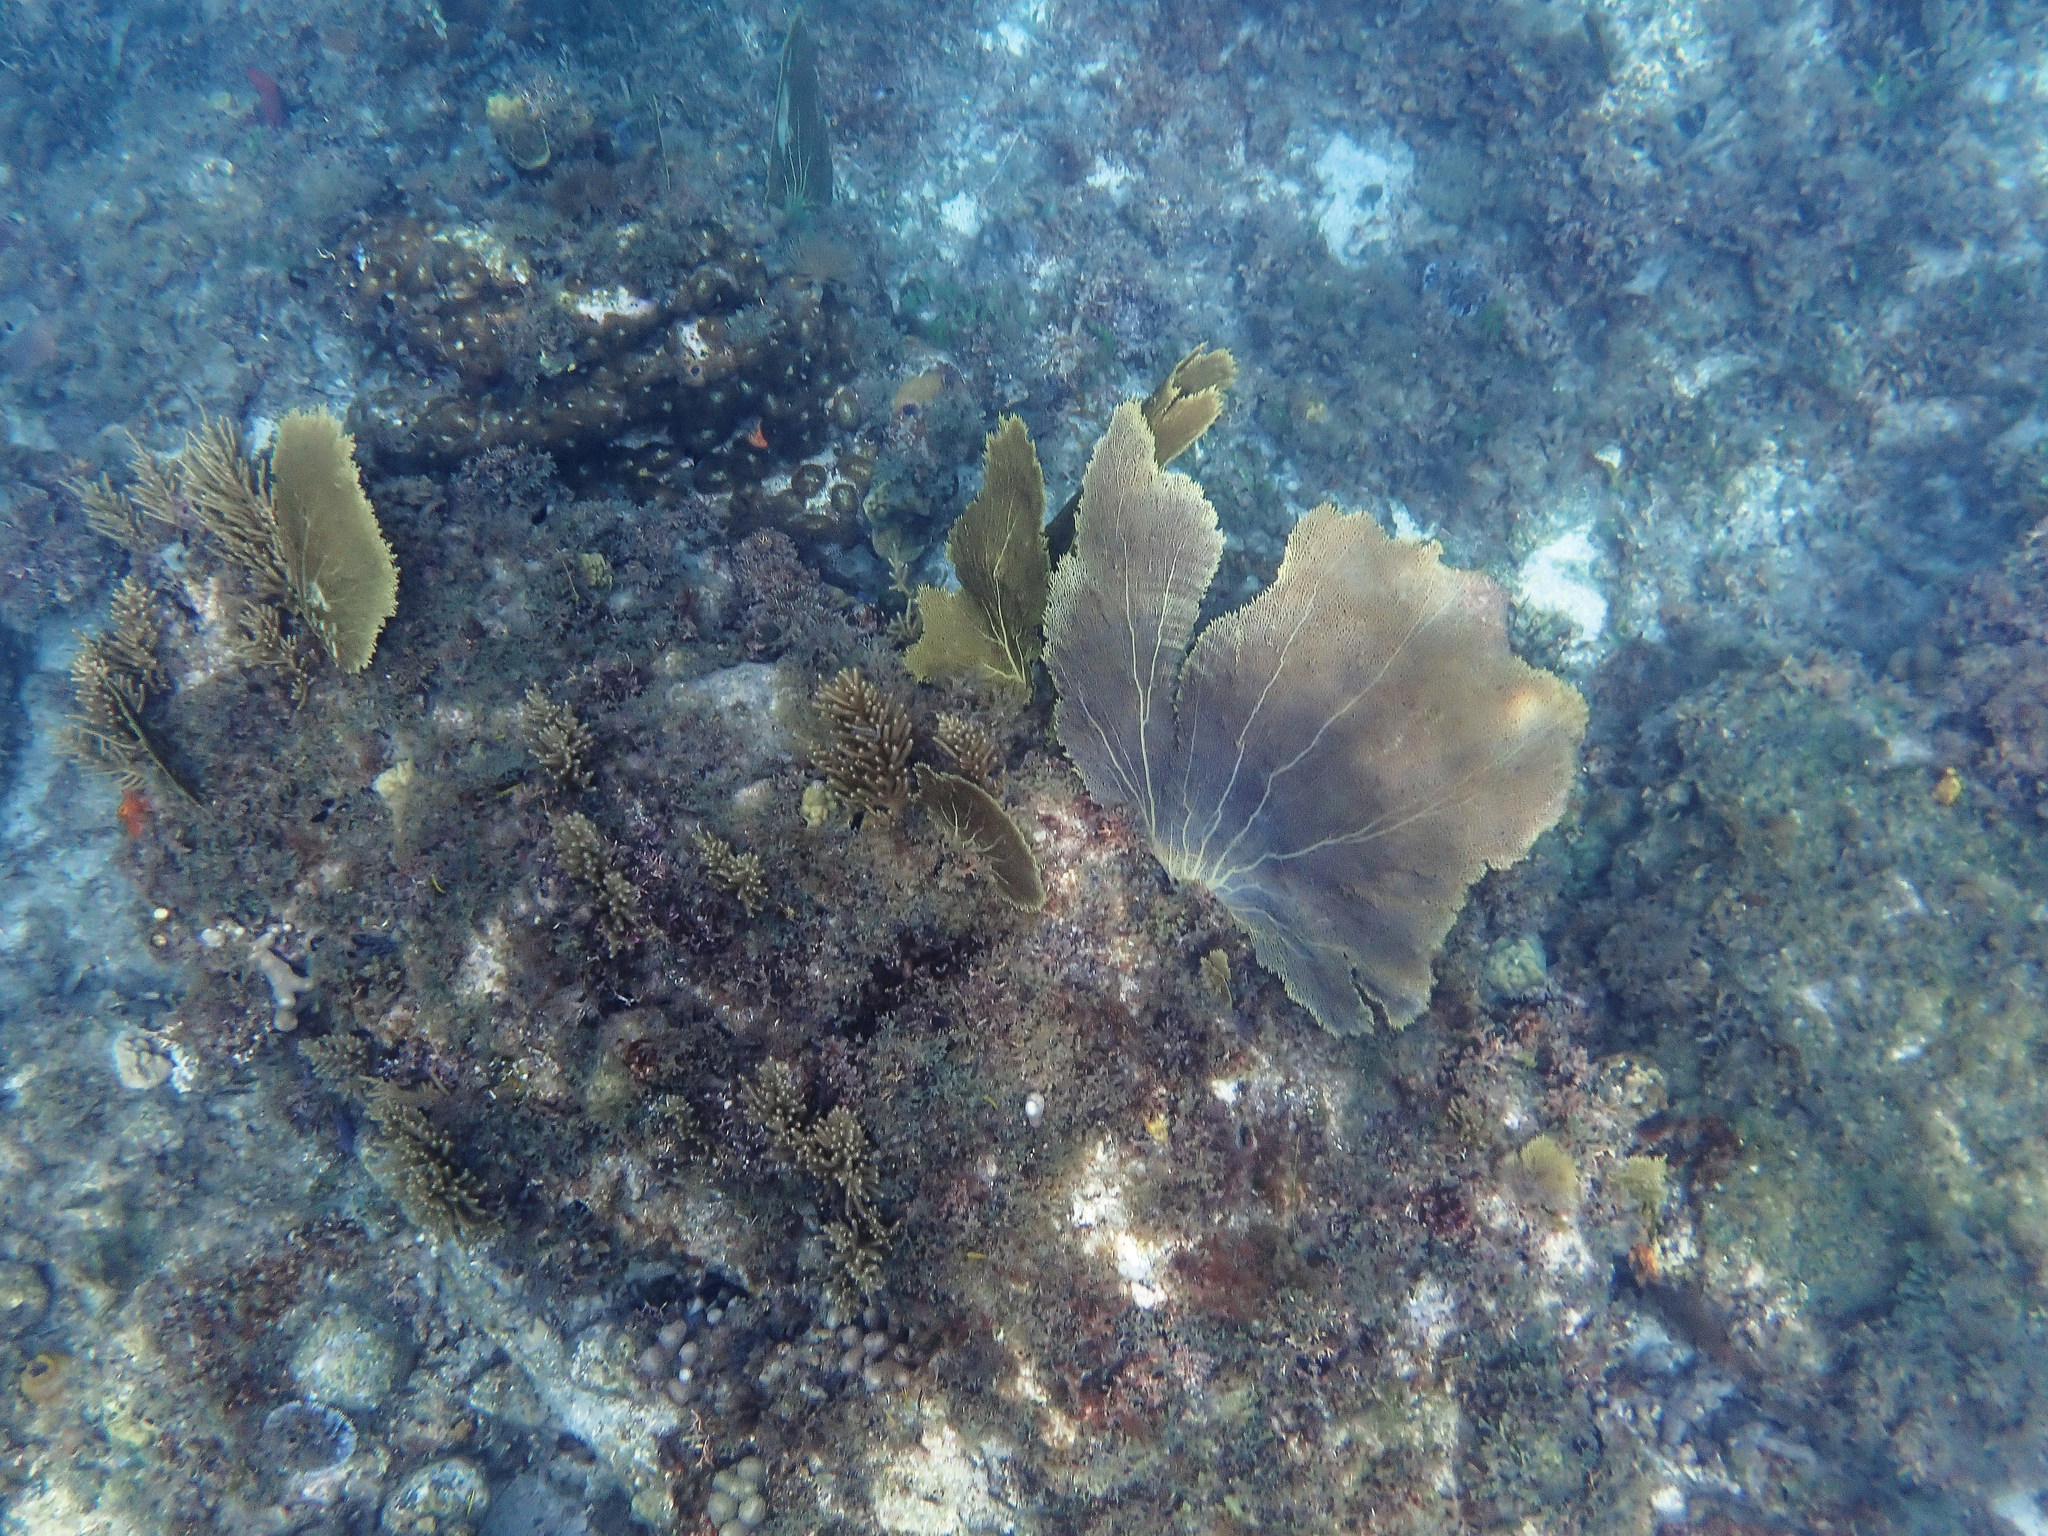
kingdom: Animalia
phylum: Cnidaria
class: Anthozoa
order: Malacalcyonacea
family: Gorgoniidae
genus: Gorgonia
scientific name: Gorgonia ventalina
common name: Common sea fan
